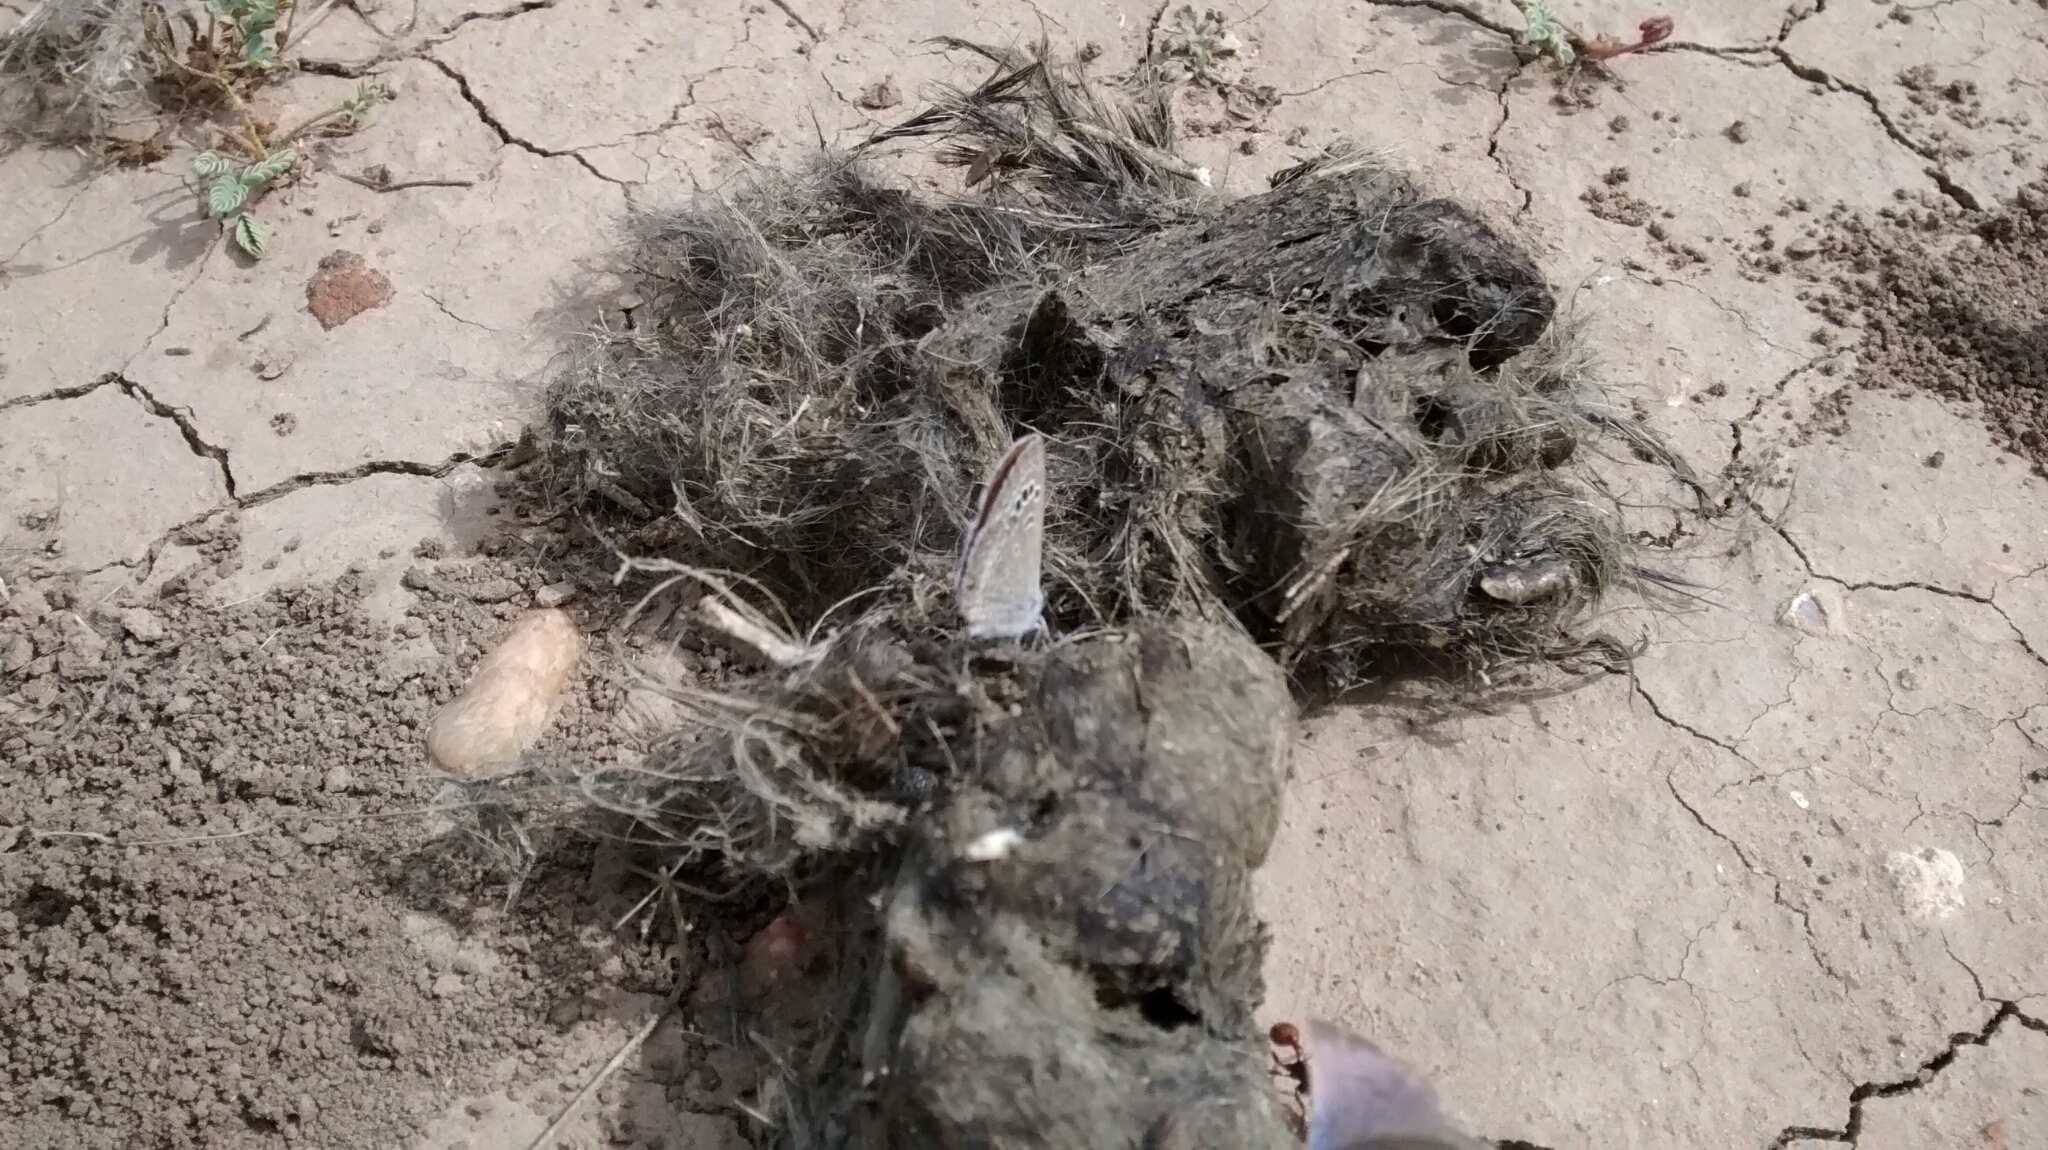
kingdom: Animalia
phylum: Arthropoda
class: Insecta
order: Lepidoptera
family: Lycaenidae
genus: Echinargus
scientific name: Echinargus isola
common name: Reakirt's blue
